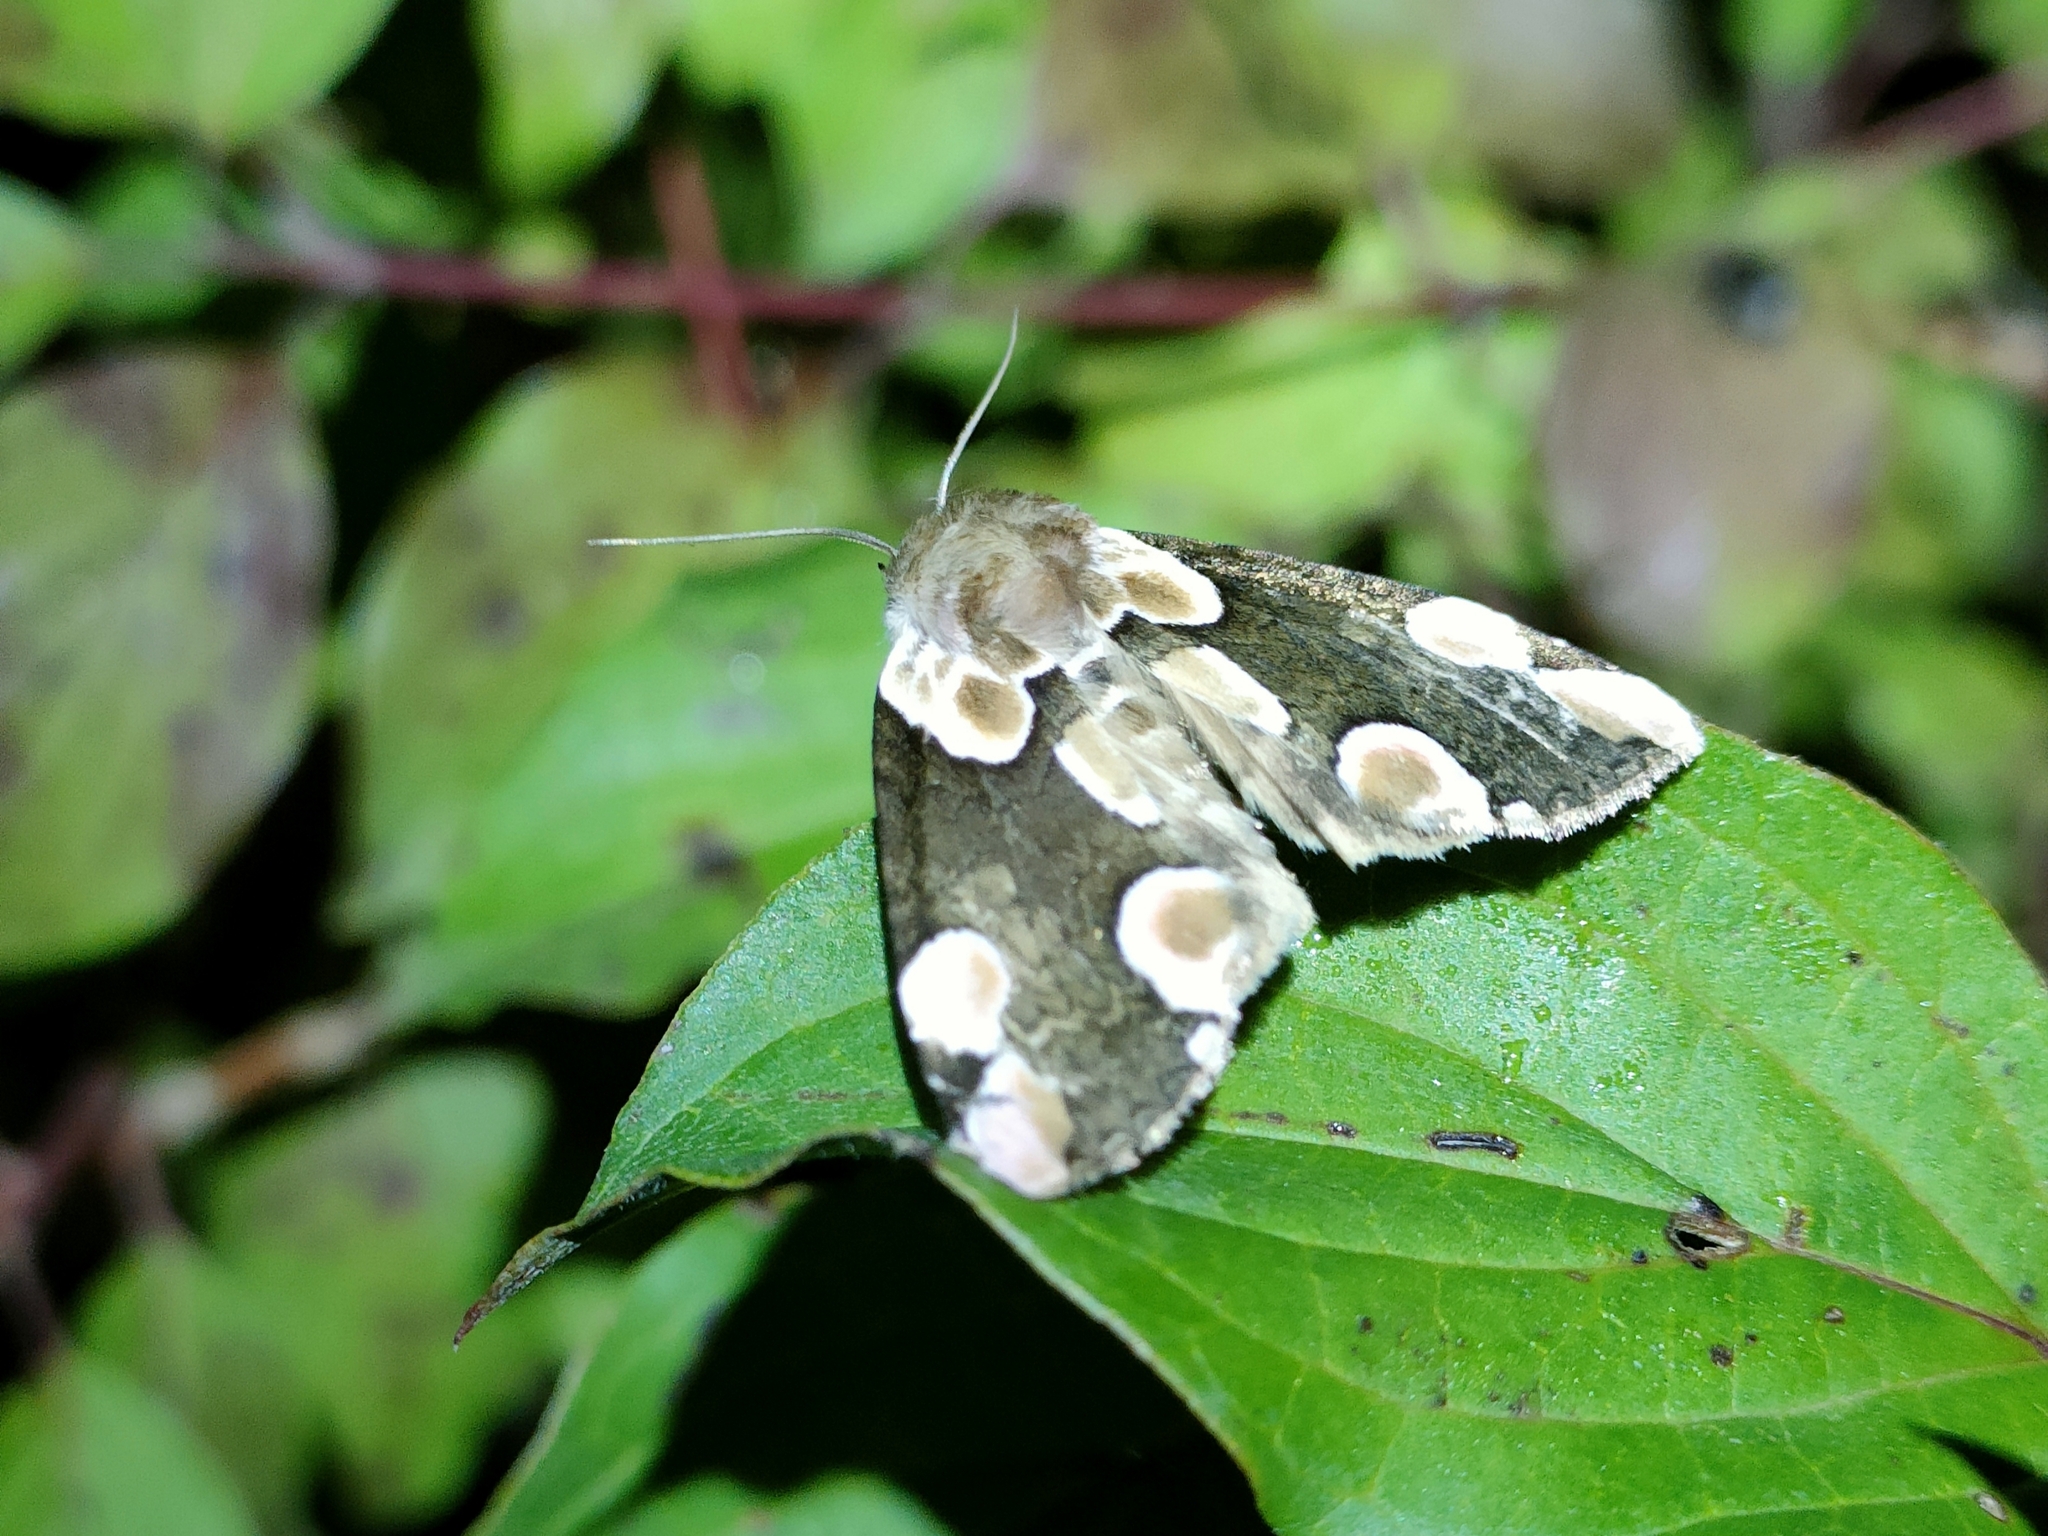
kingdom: Animalia
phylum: Arthropoda
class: Insecta
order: Lepidoptera
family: Drepanidae
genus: Thyatira
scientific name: Thyatira batis
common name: Peach blossom
